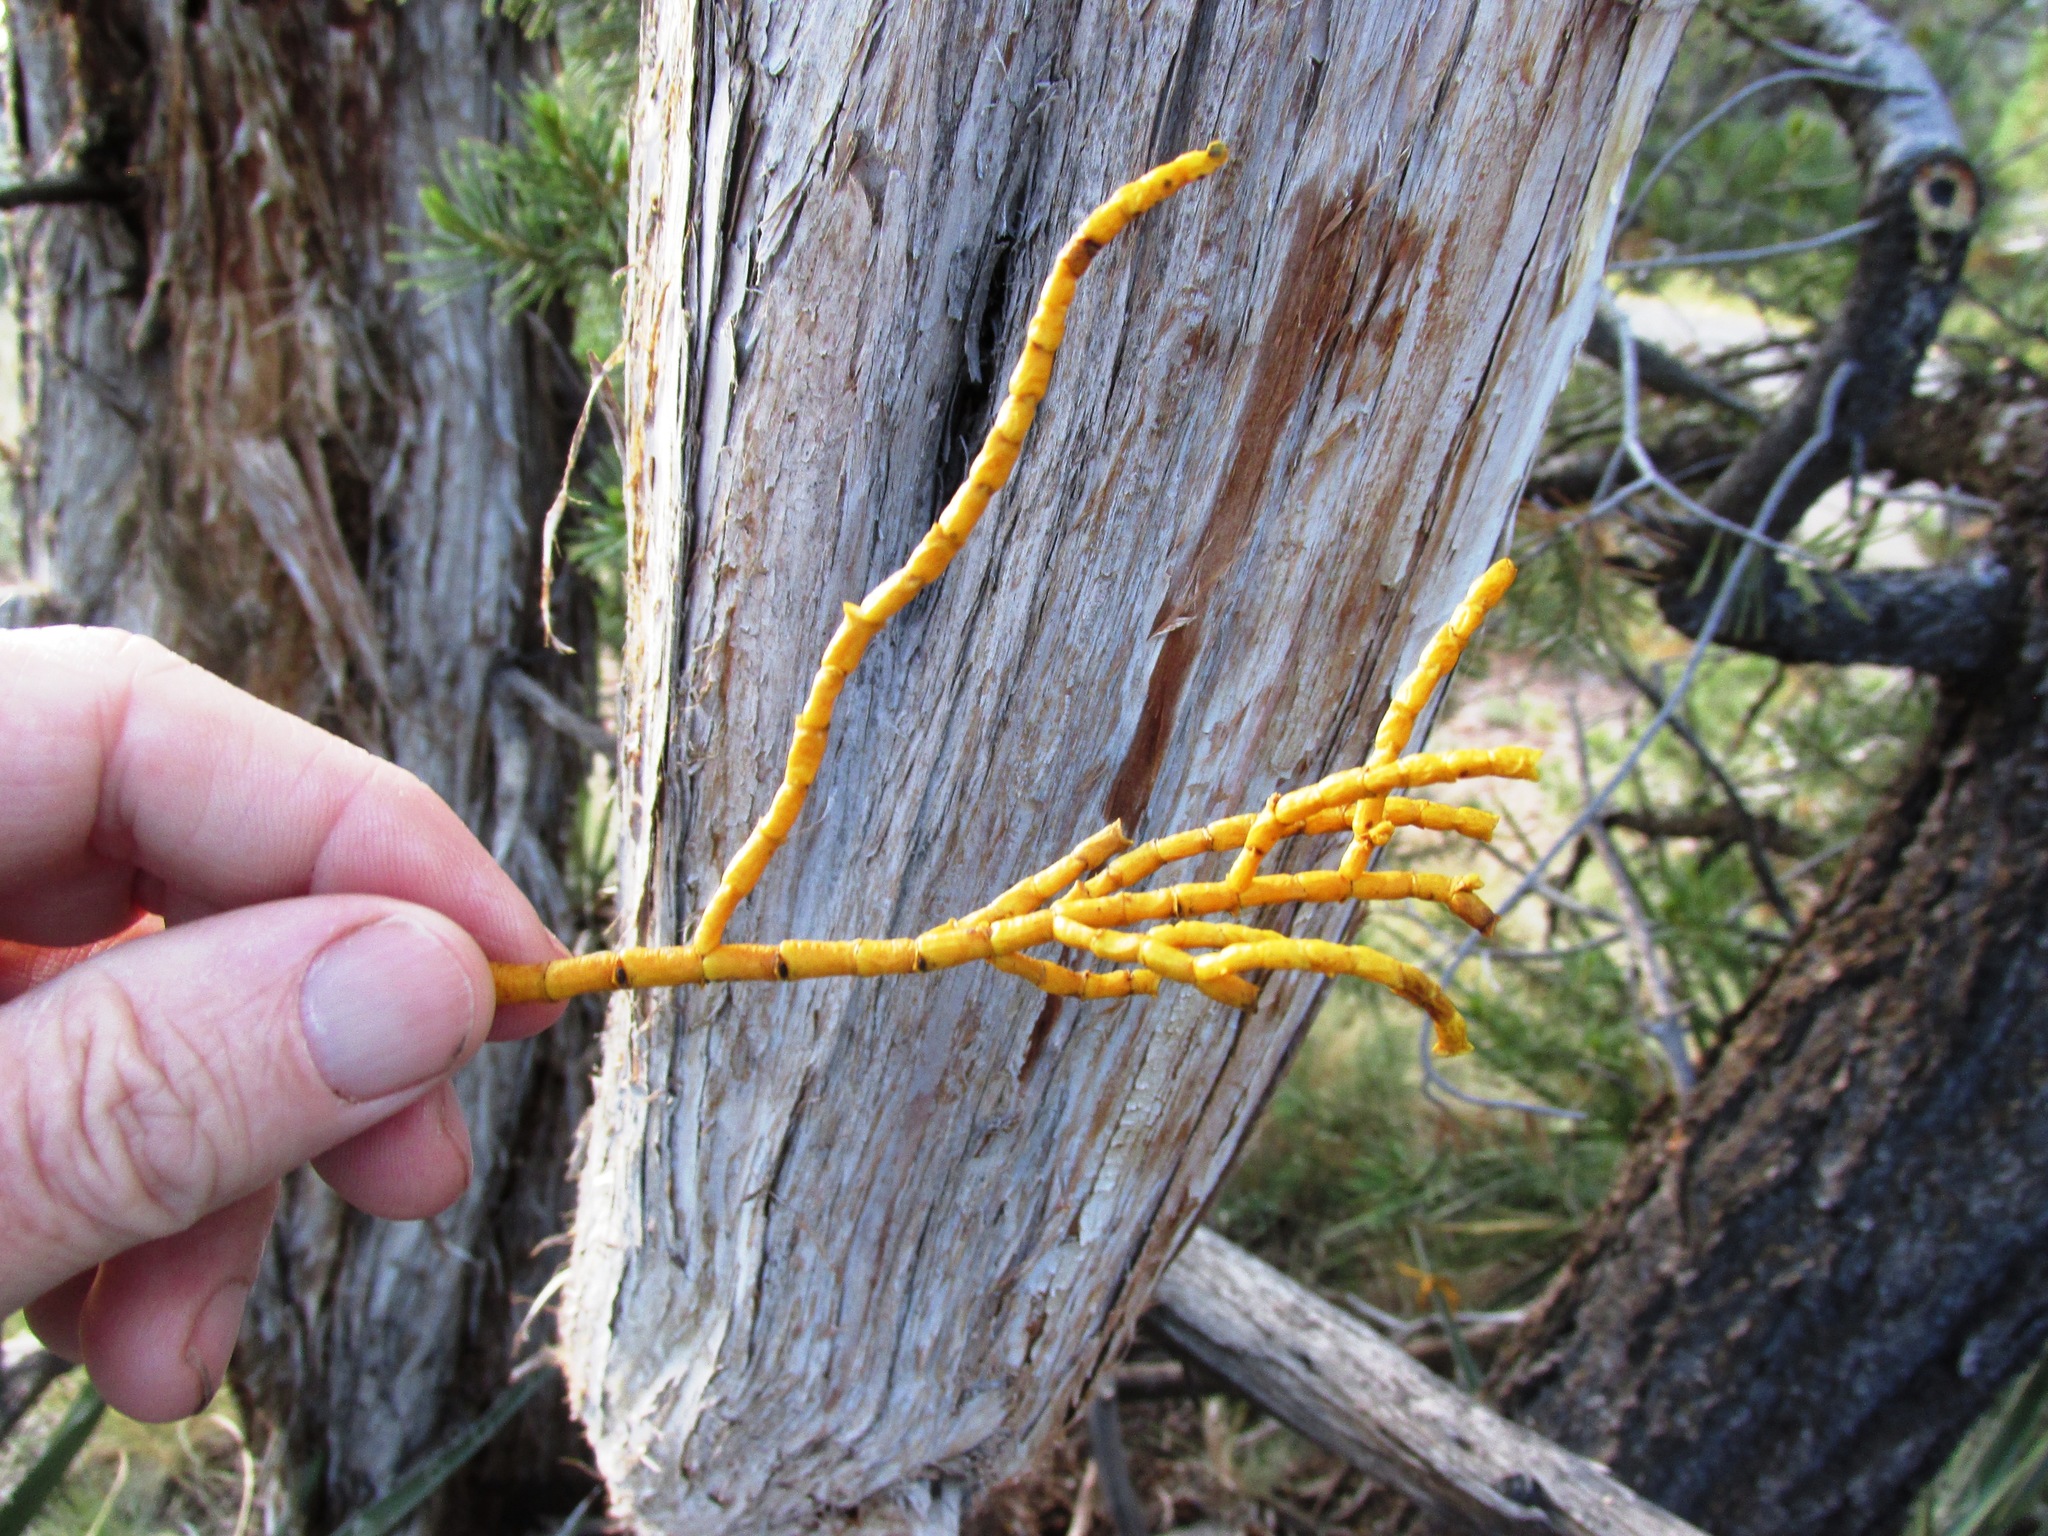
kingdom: Plantae
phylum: Tracheophyta
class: Magnoliopsida
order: Santalales
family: Viscaceae
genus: Phoradendron
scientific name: Phoradendron juniperinum
